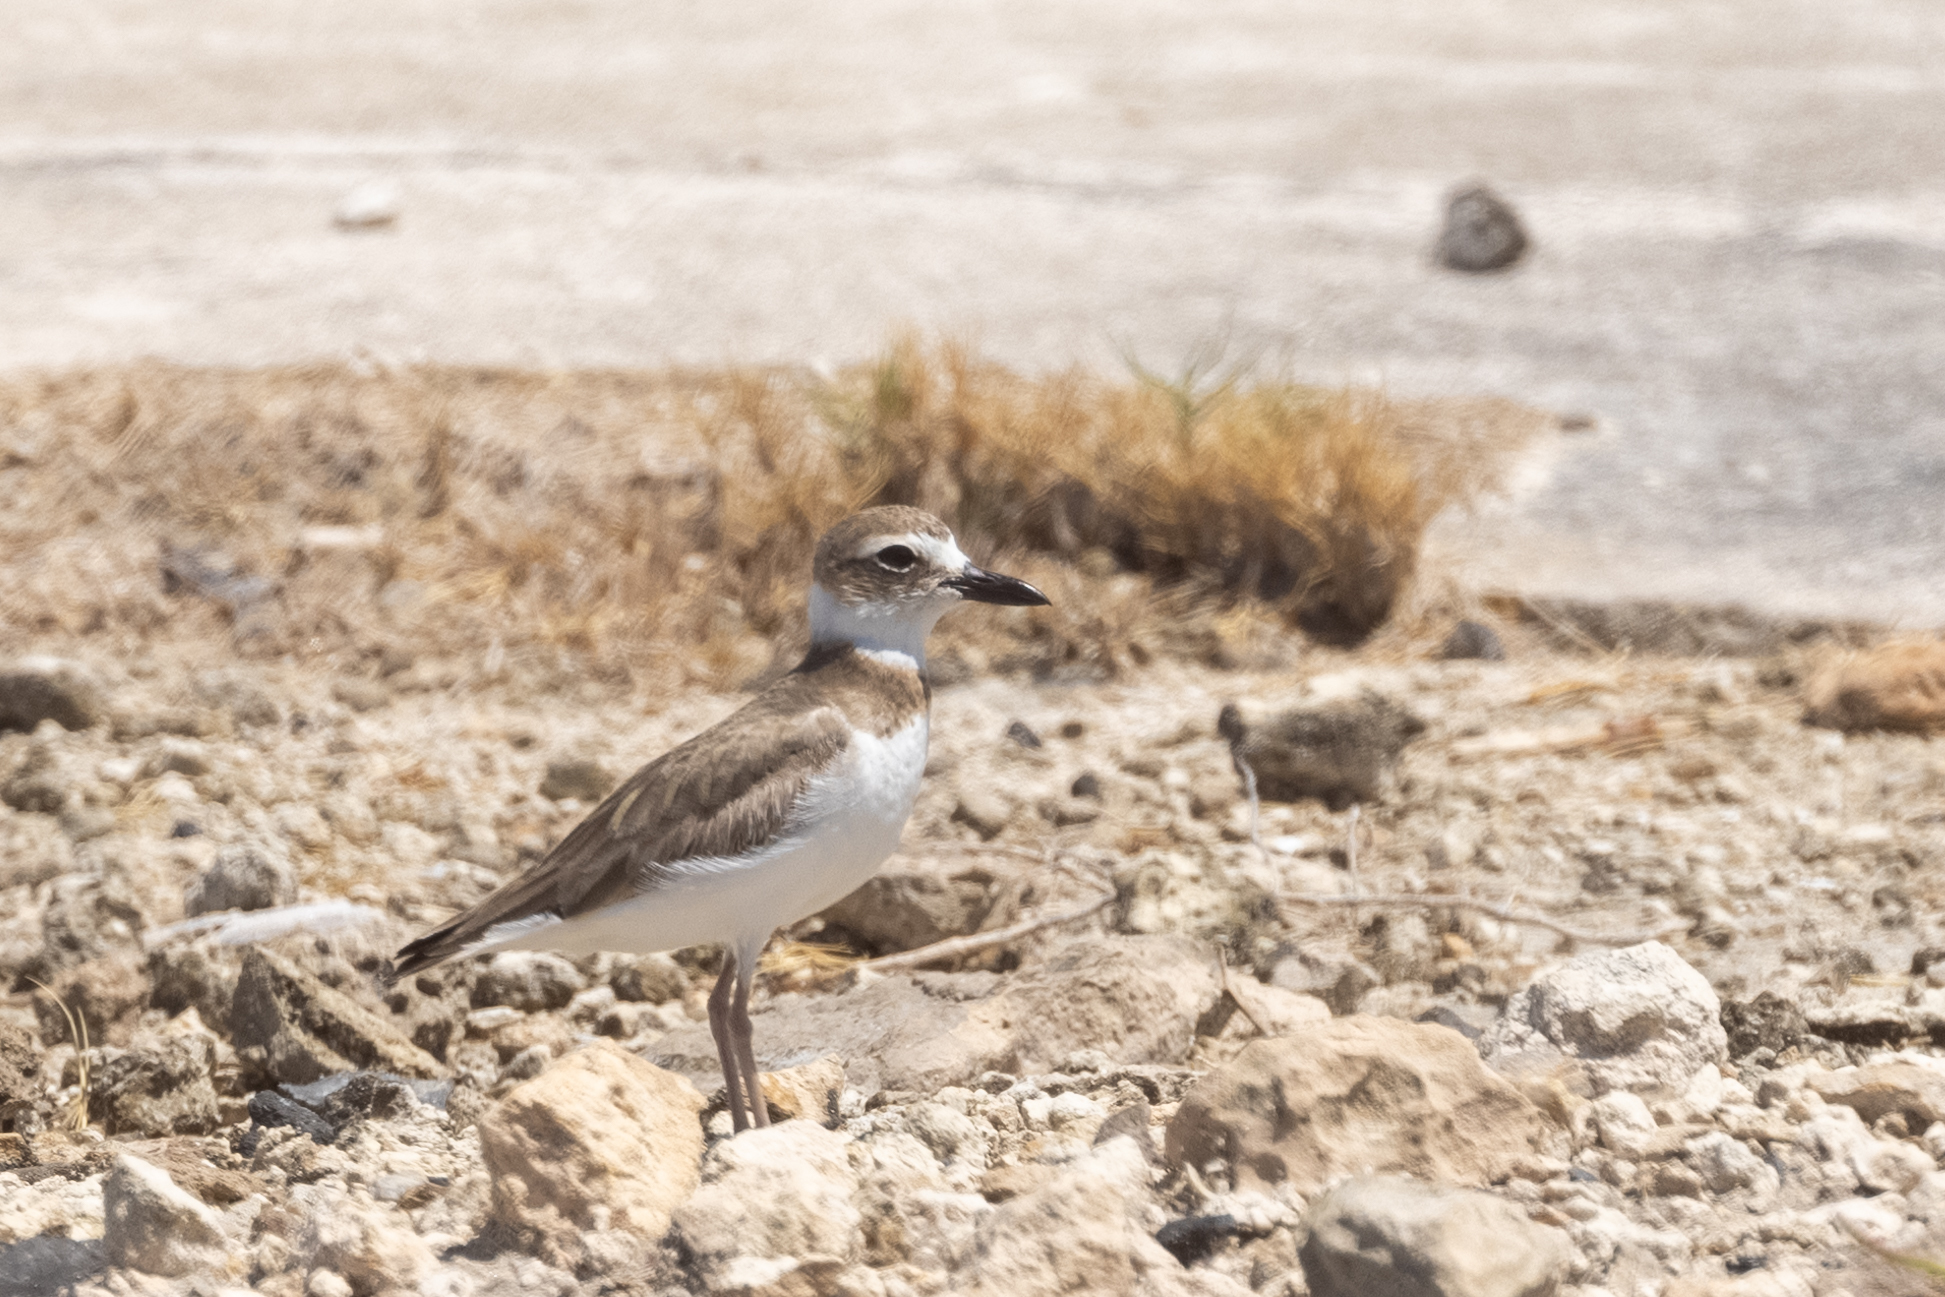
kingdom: Animalia
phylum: Chordata
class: Aves
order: Charadriiformes
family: Charadriidae
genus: Anarhynchus
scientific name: Anarhynchus
